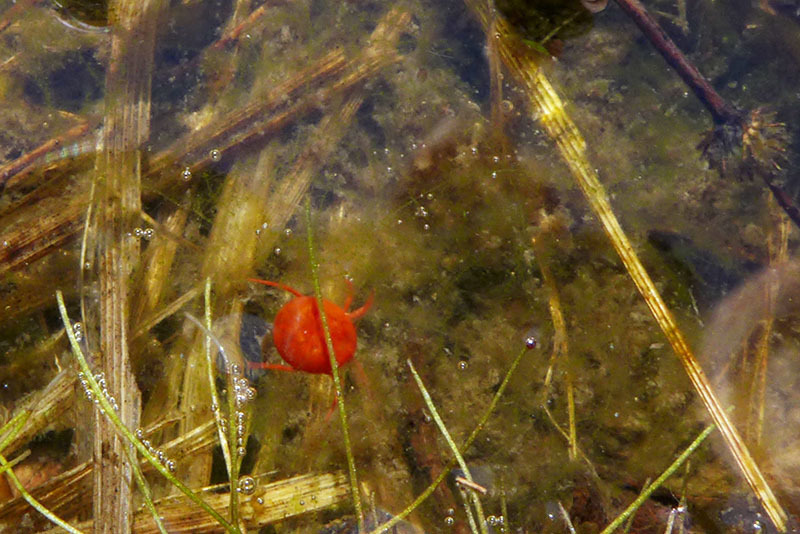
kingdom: Animalia
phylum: Arthropoda
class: Arachnida
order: Trombidiformes
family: Eylaidae
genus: Eylais
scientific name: Eylais
